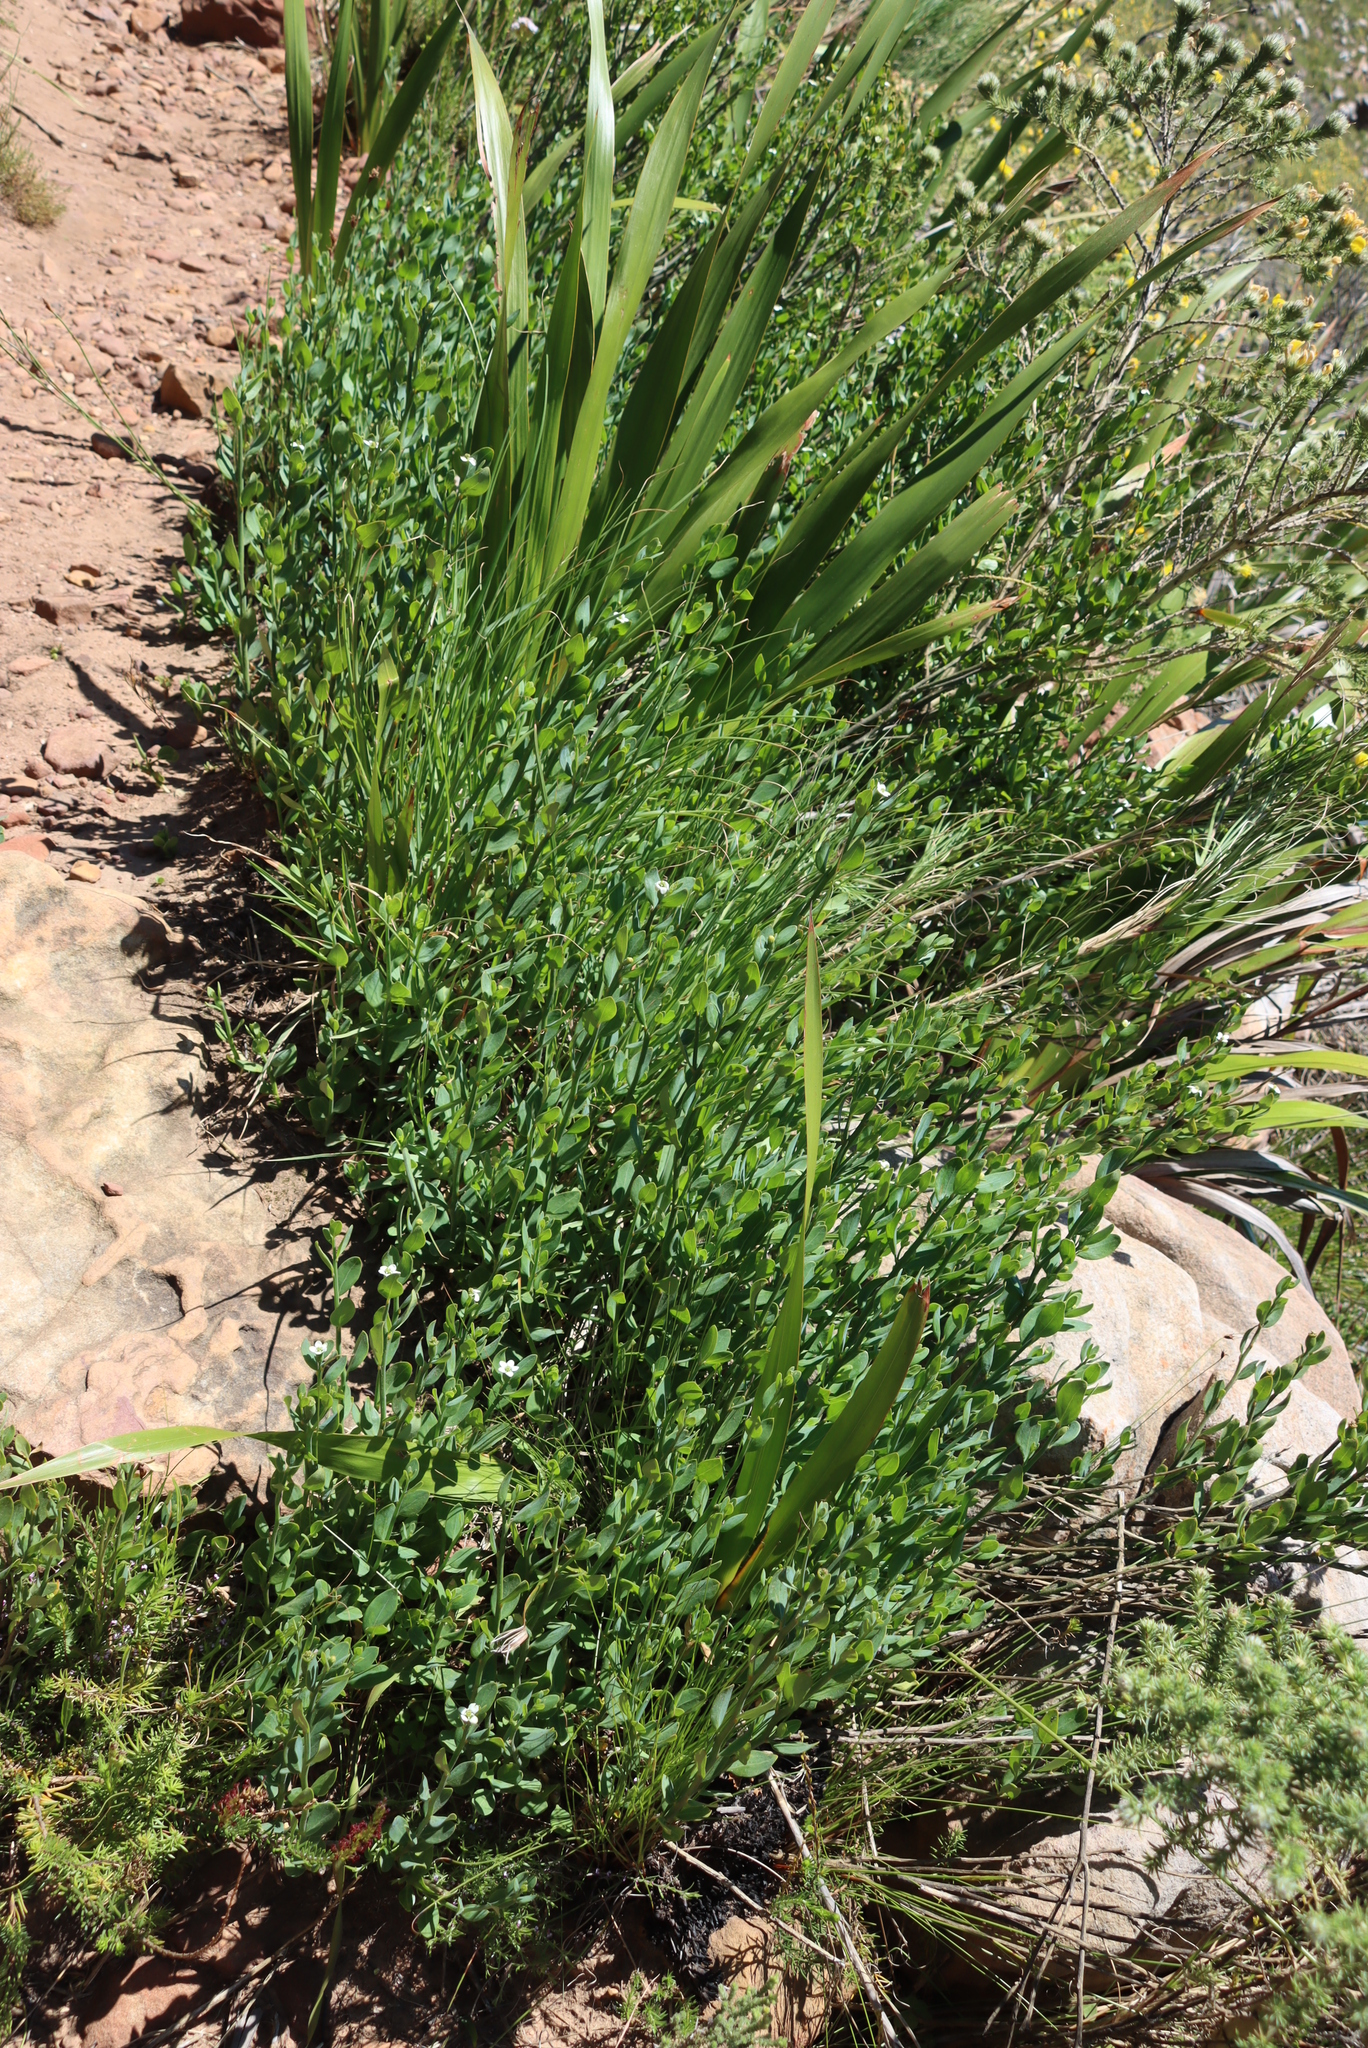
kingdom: Plantae
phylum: Tracheophyta
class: Magnoliopsida
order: Solanales
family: Montiniaceae
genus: Montinia
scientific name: Montinia caryophyllacea
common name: Wild clove-bush
